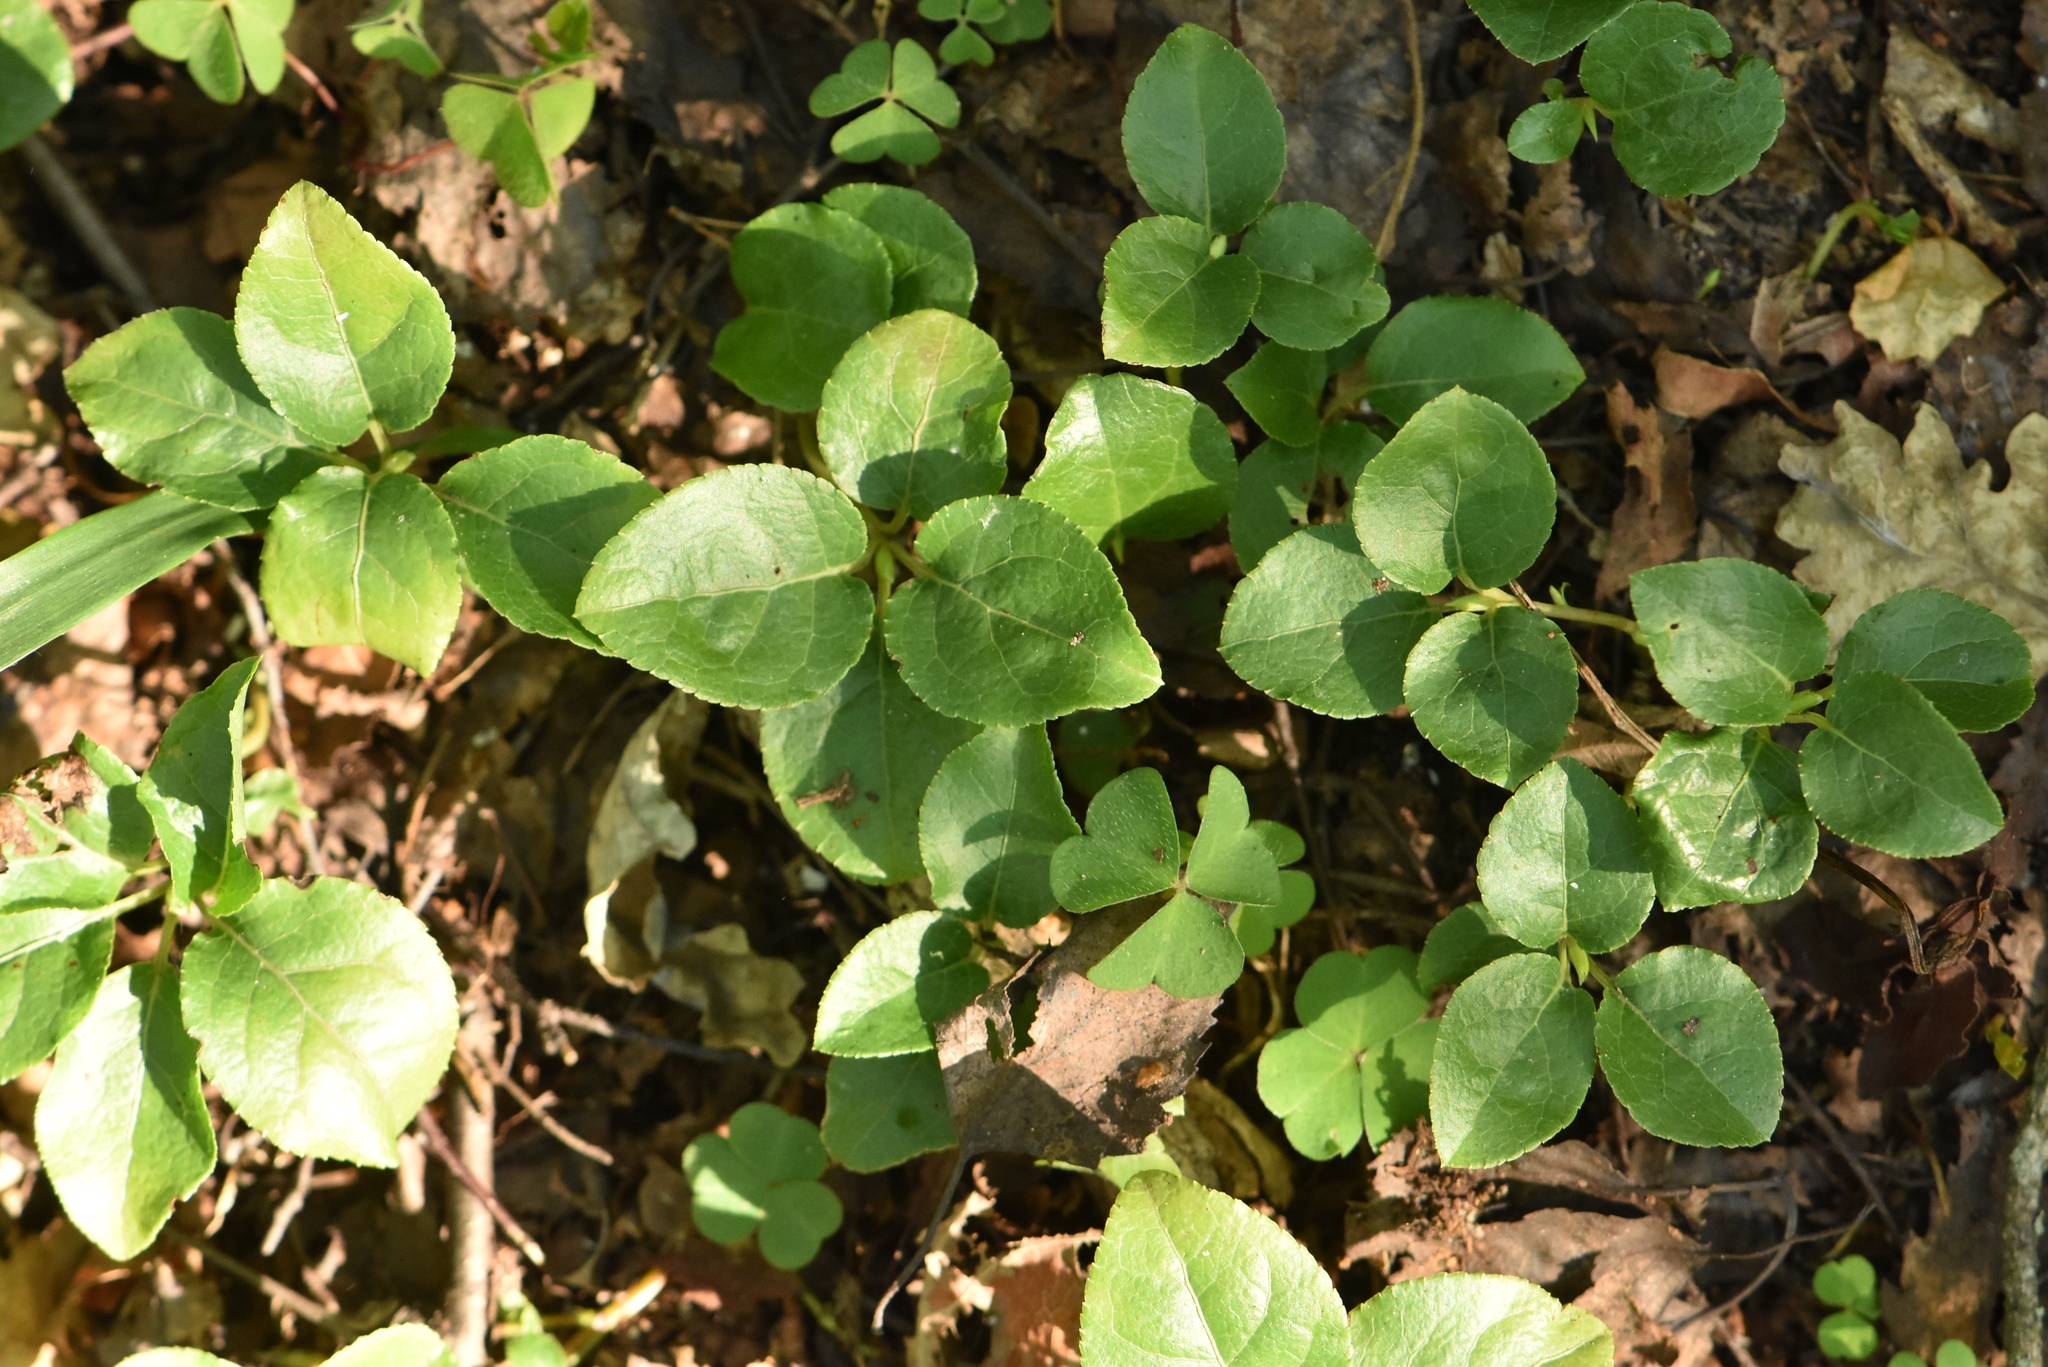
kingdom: Plantae
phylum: Tracheophyta
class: Magnoliopsida
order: Ericales
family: Ericaceae
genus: Orthilia
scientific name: Orthilia secunda
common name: One-sided orthilia
